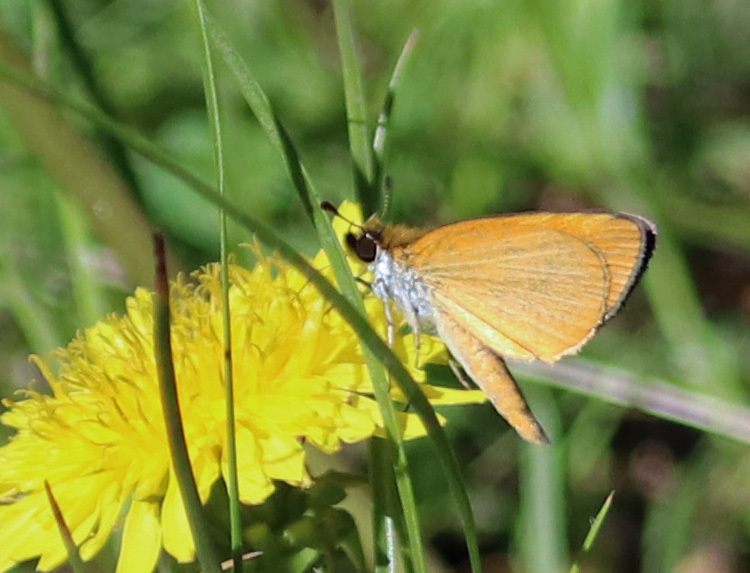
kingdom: Animalia
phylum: Arthropoda
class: Insecta
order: Lepidoptera
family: Hesperiidae
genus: Ancyloxypha
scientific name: Ancyloxypha numitor
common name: Least skipper
